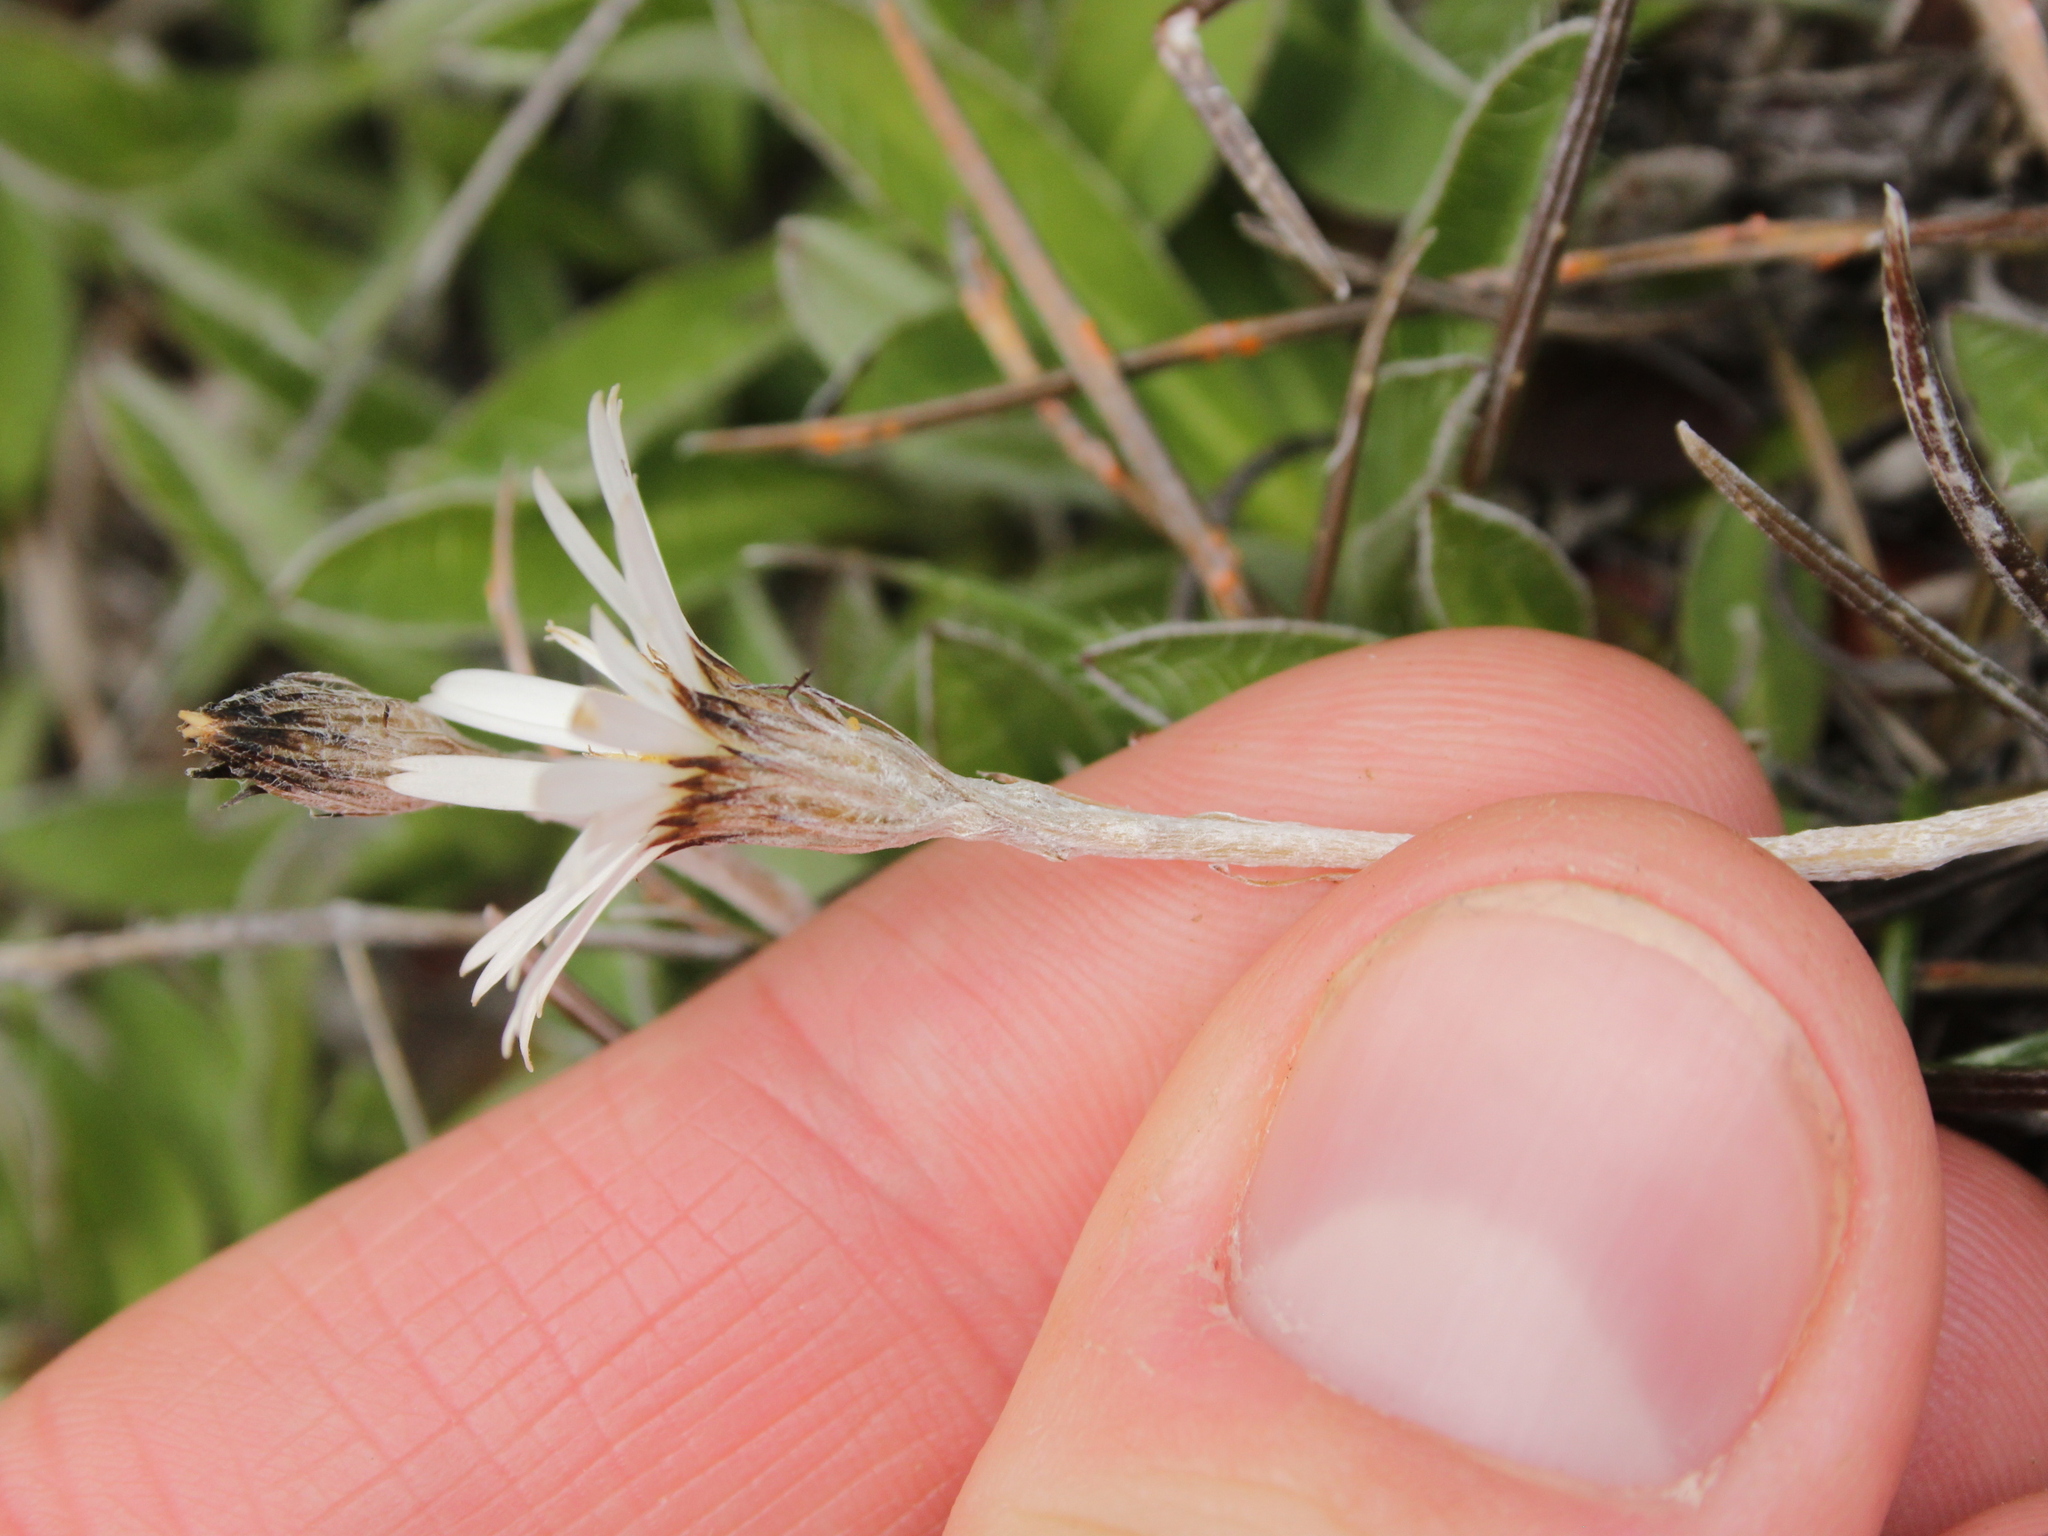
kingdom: Plantae
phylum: Tracheophyta
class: Magnoliopsida
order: Asterales
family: Asteraceae
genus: Celmisia
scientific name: Celmisia gracilenta
